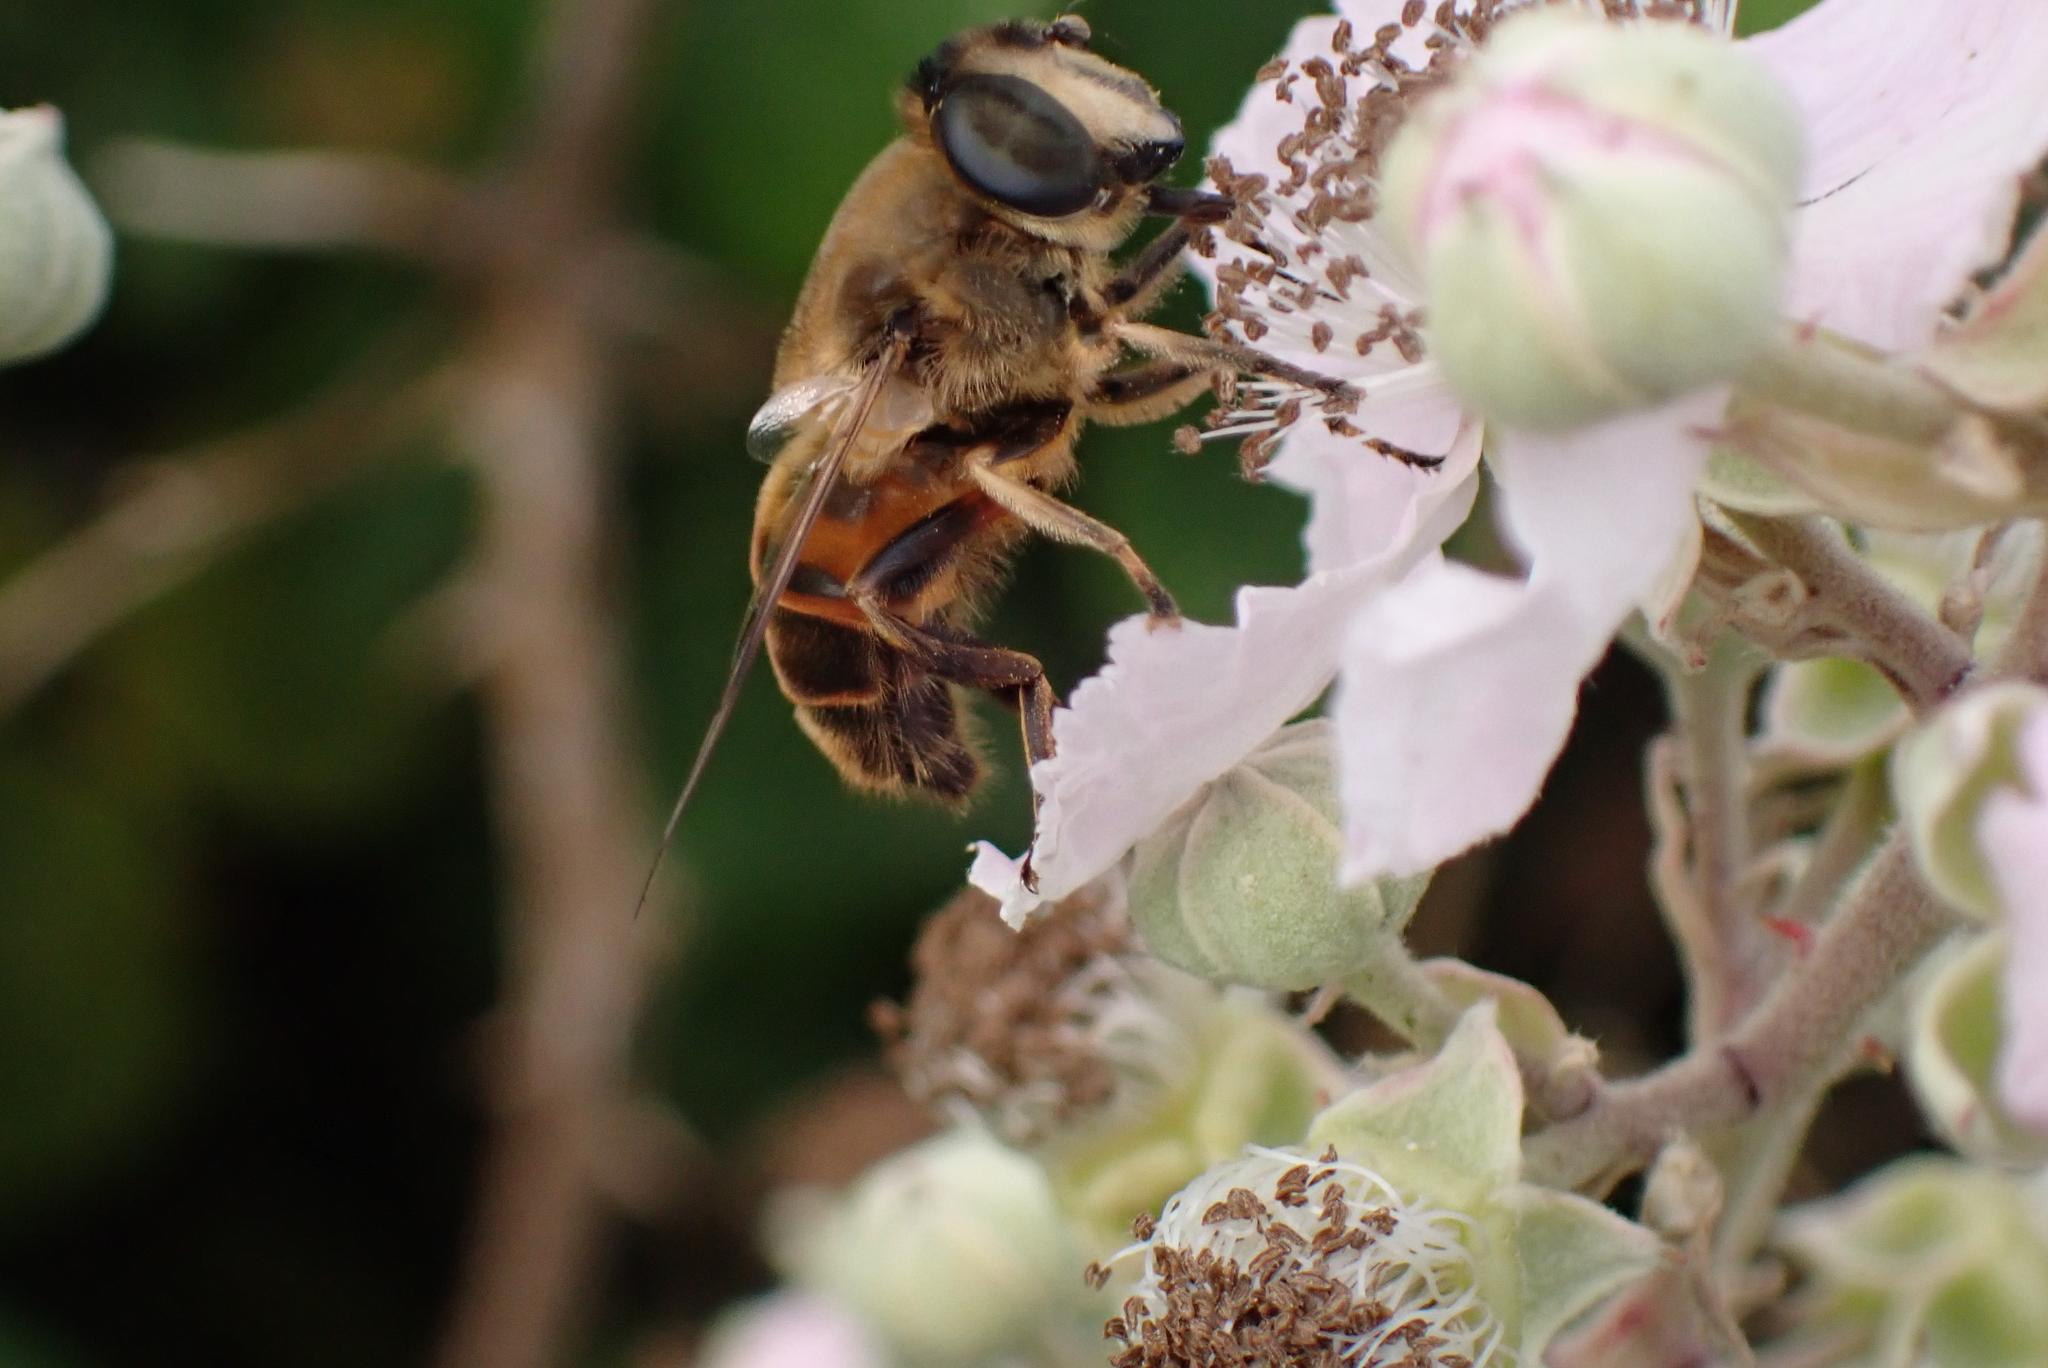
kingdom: Animalia
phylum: Arthropoda
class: Insecta
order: Diptera
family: Syrphidae
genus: Eristalis
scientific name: Eristalis tenax
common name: Drone fly
